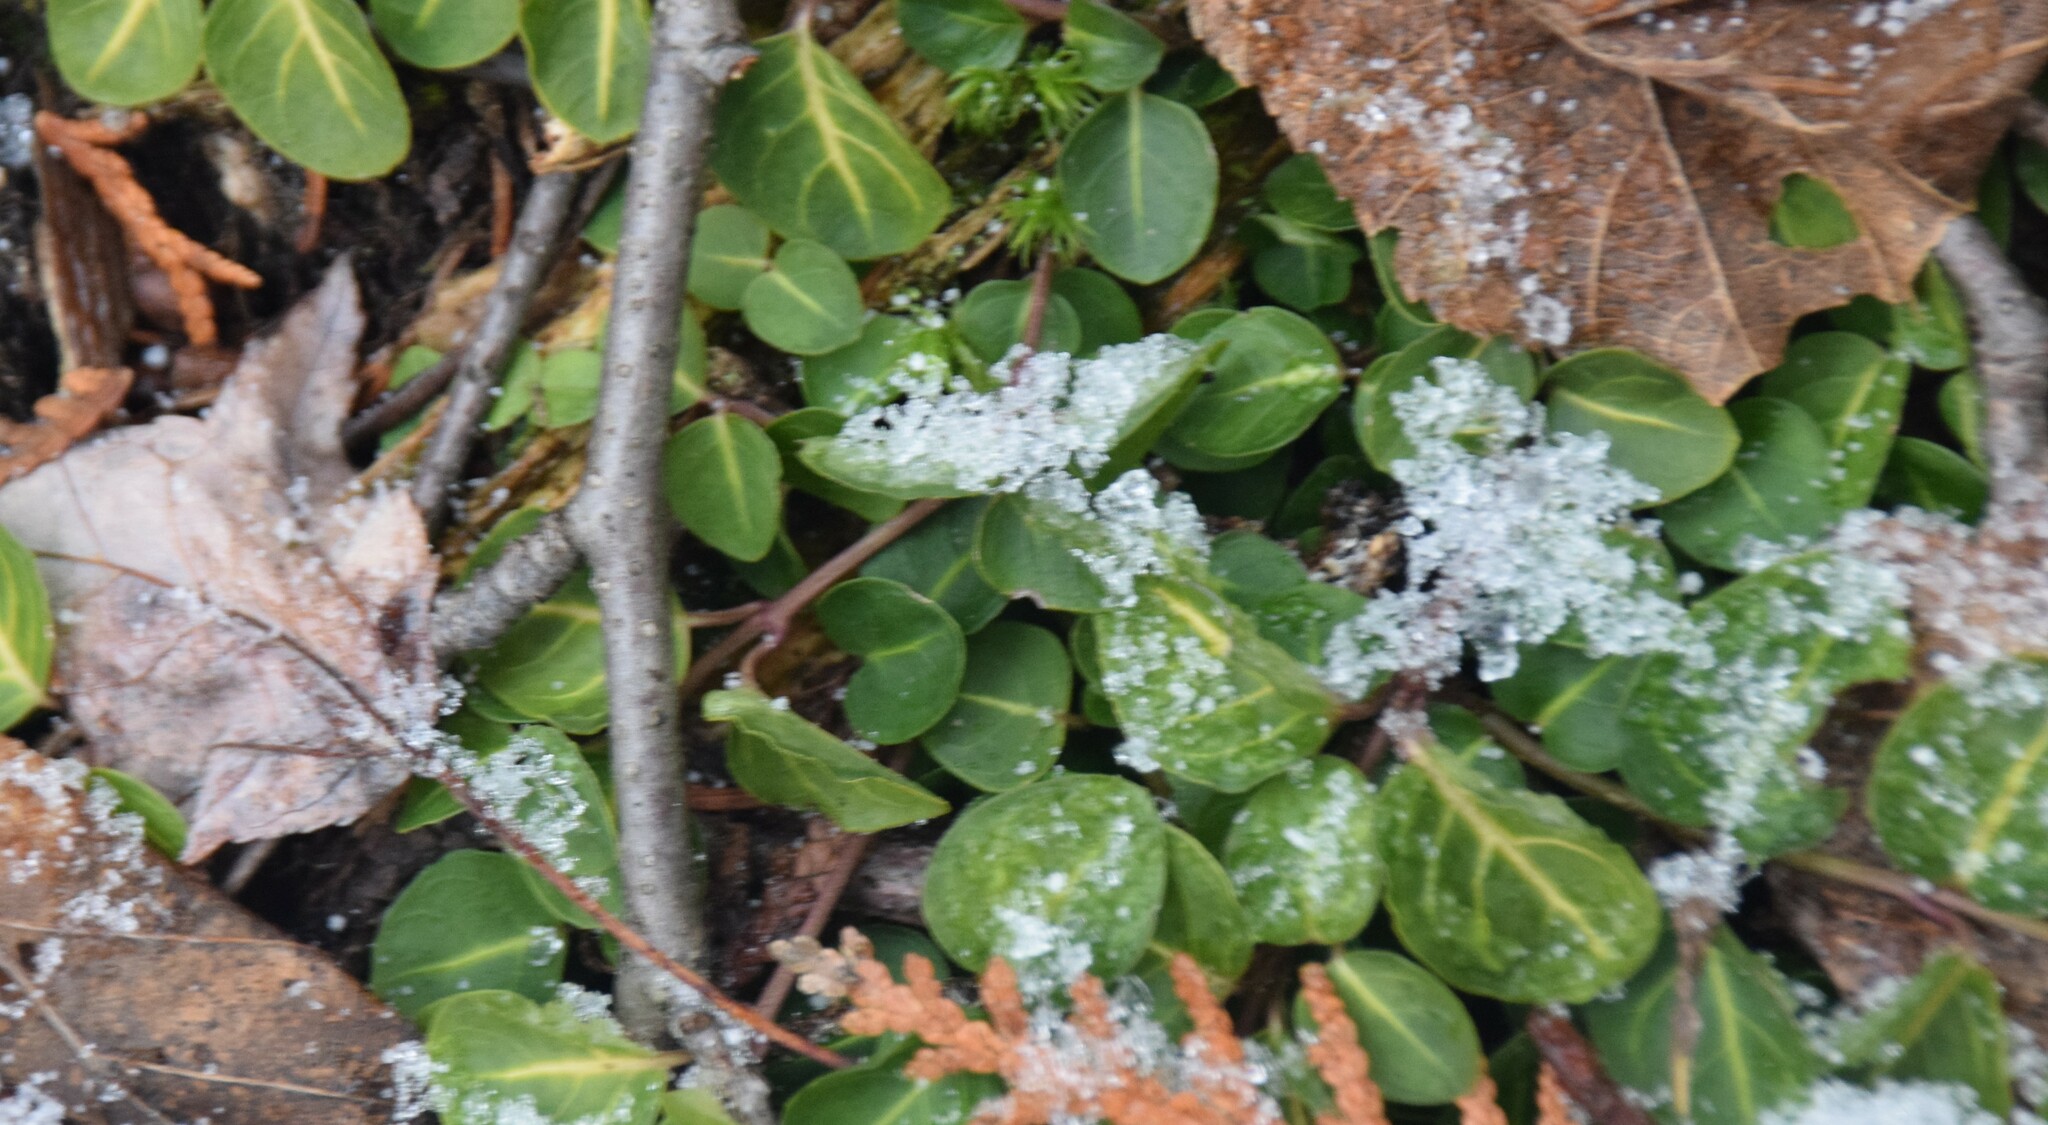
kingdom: Plantae
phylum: Tracheophyta
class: Magnoliopsida
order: Gentianales
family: Rubiaceae
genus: Mitchella
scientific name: Mitchella repens
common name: Partridge-berry
